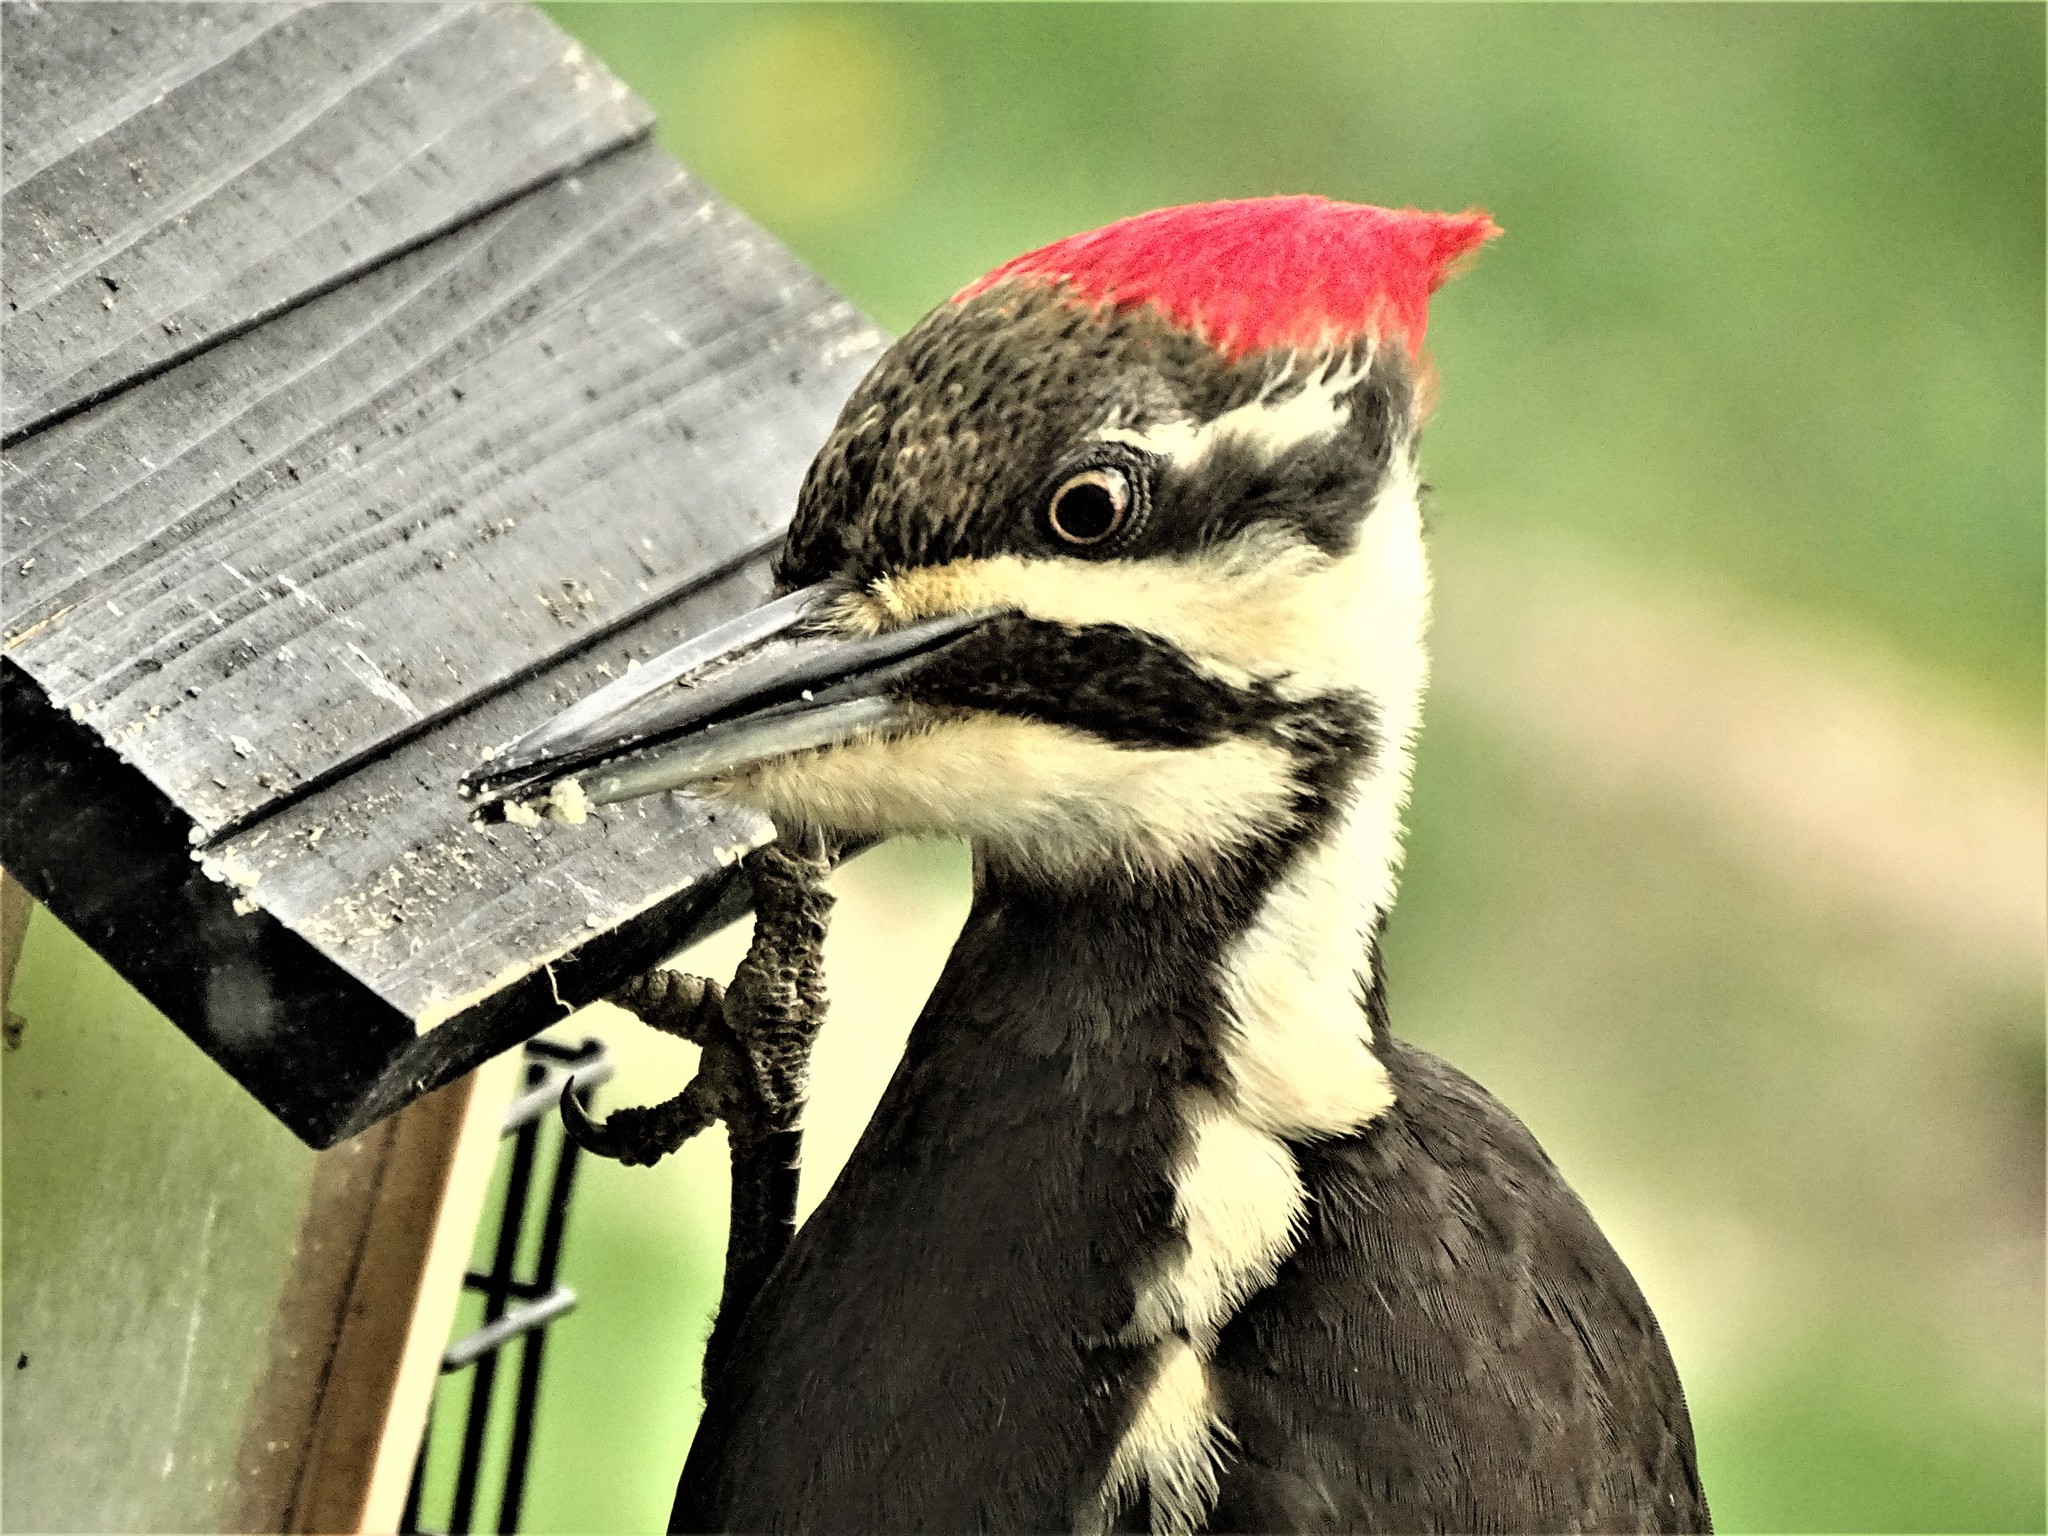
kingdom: Animalia
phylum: Chordata
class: Aves
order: Piciformes
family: Picidae
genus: Dryocopus
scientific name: Dryocopus pileatus
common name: Pileated woodpecker
